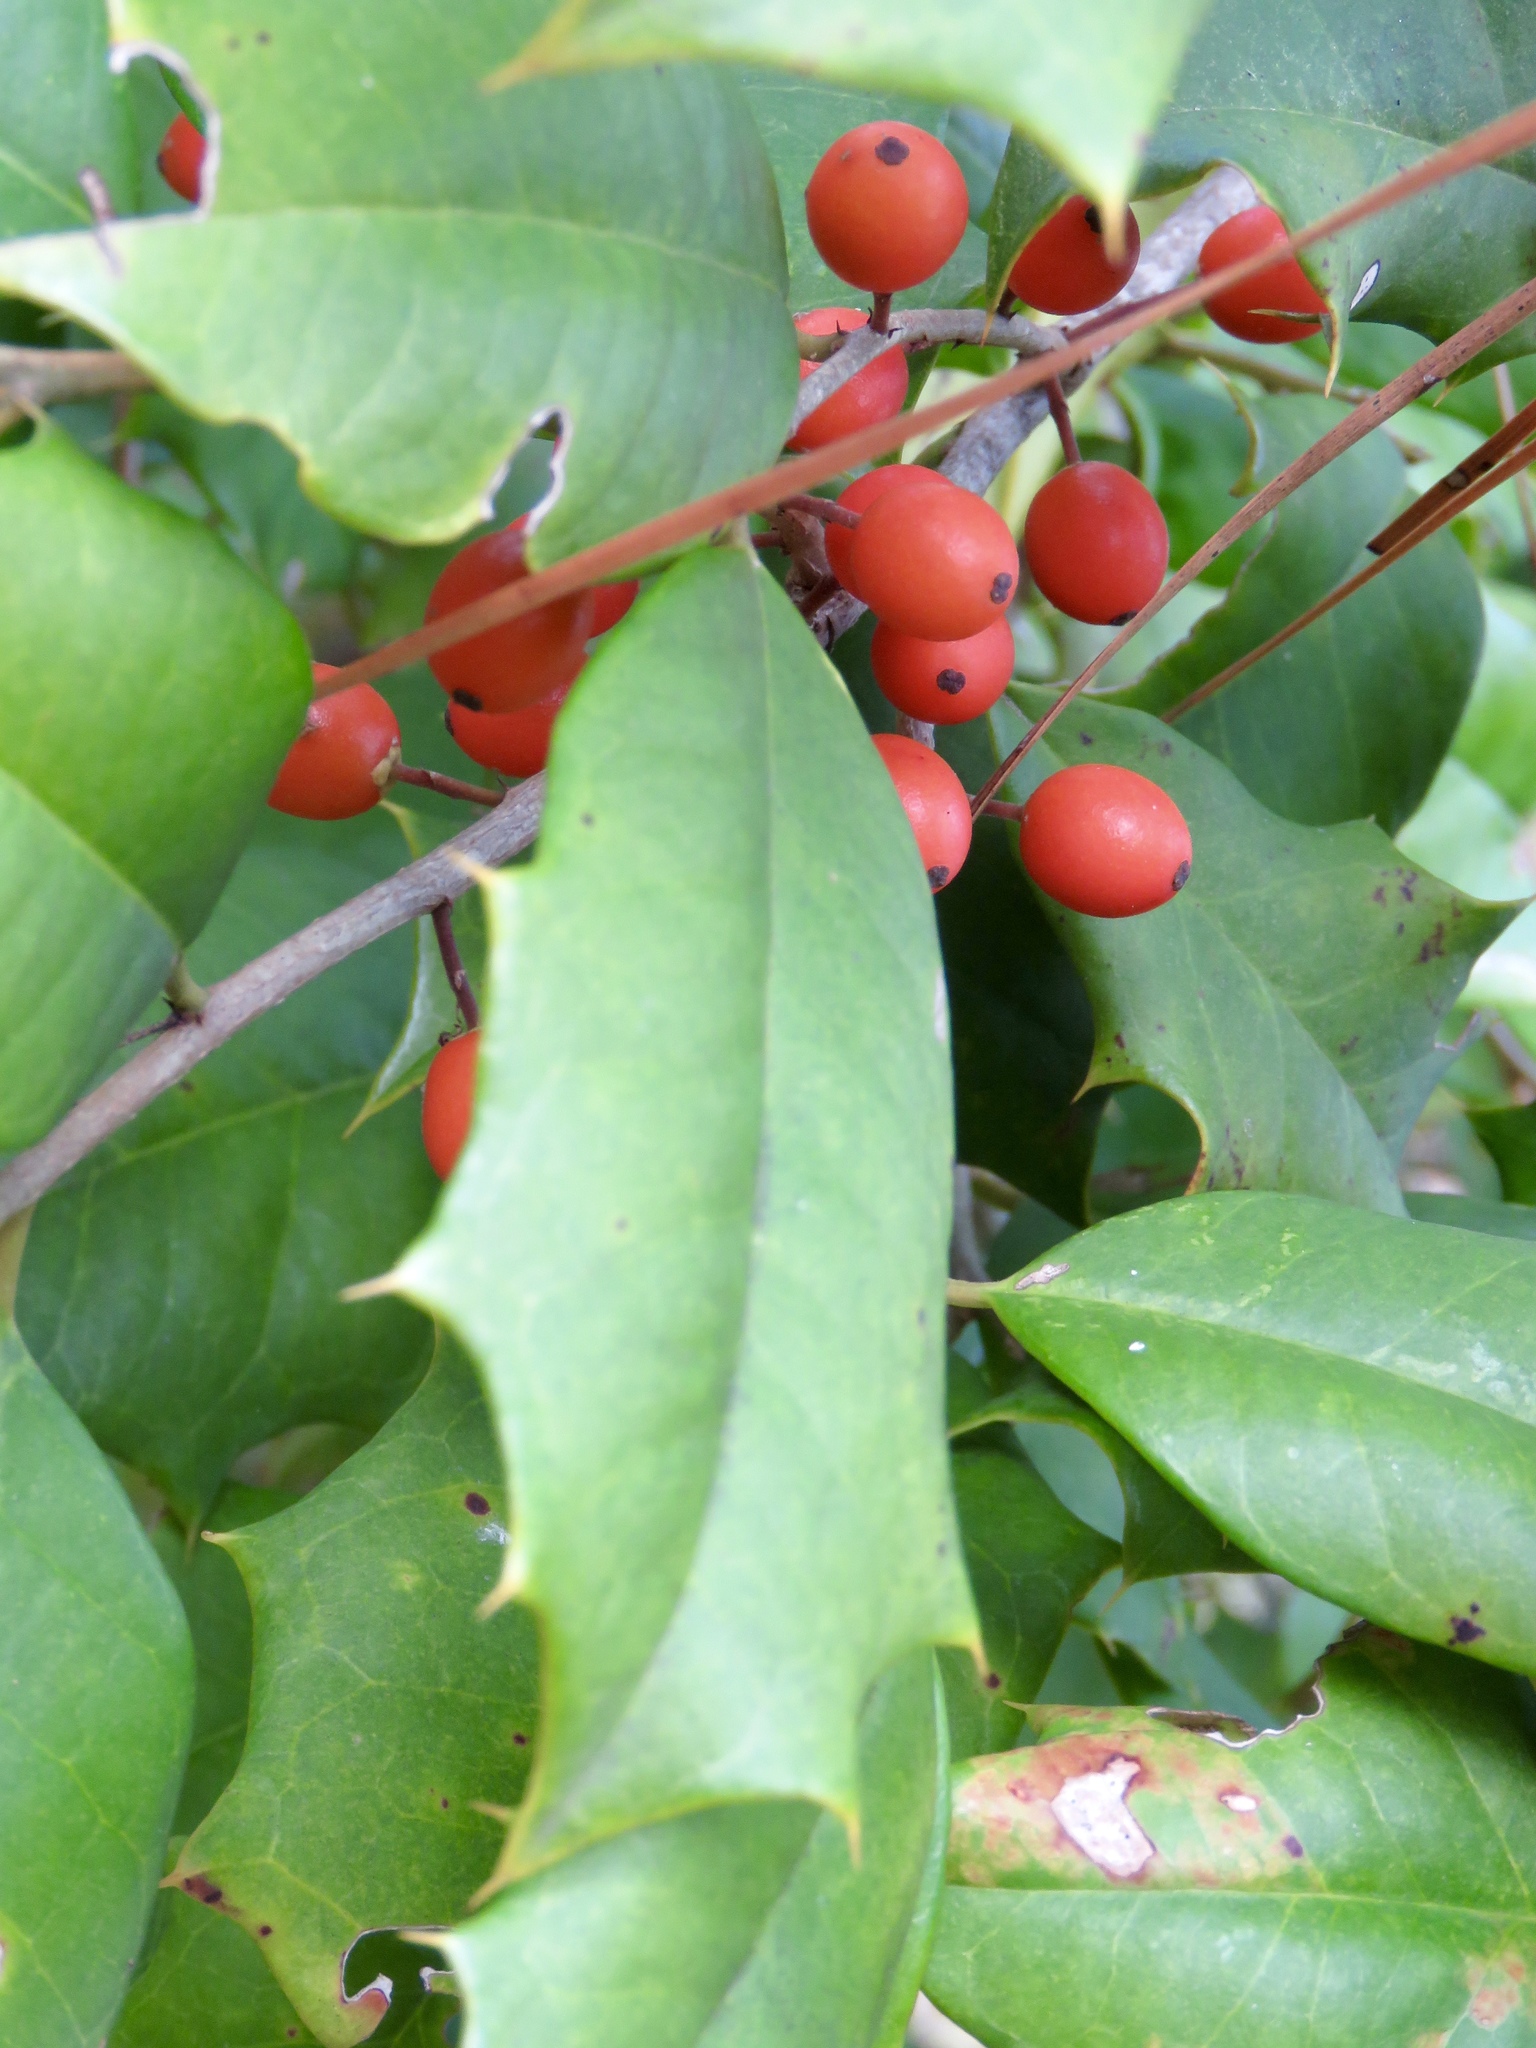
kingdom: Plantae
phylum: Tracheophyta
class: Magnoliopsida
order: Aquifoliales
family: Aquifoliaceae
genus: Ilex
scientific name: Ilex opaca
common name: American holly
